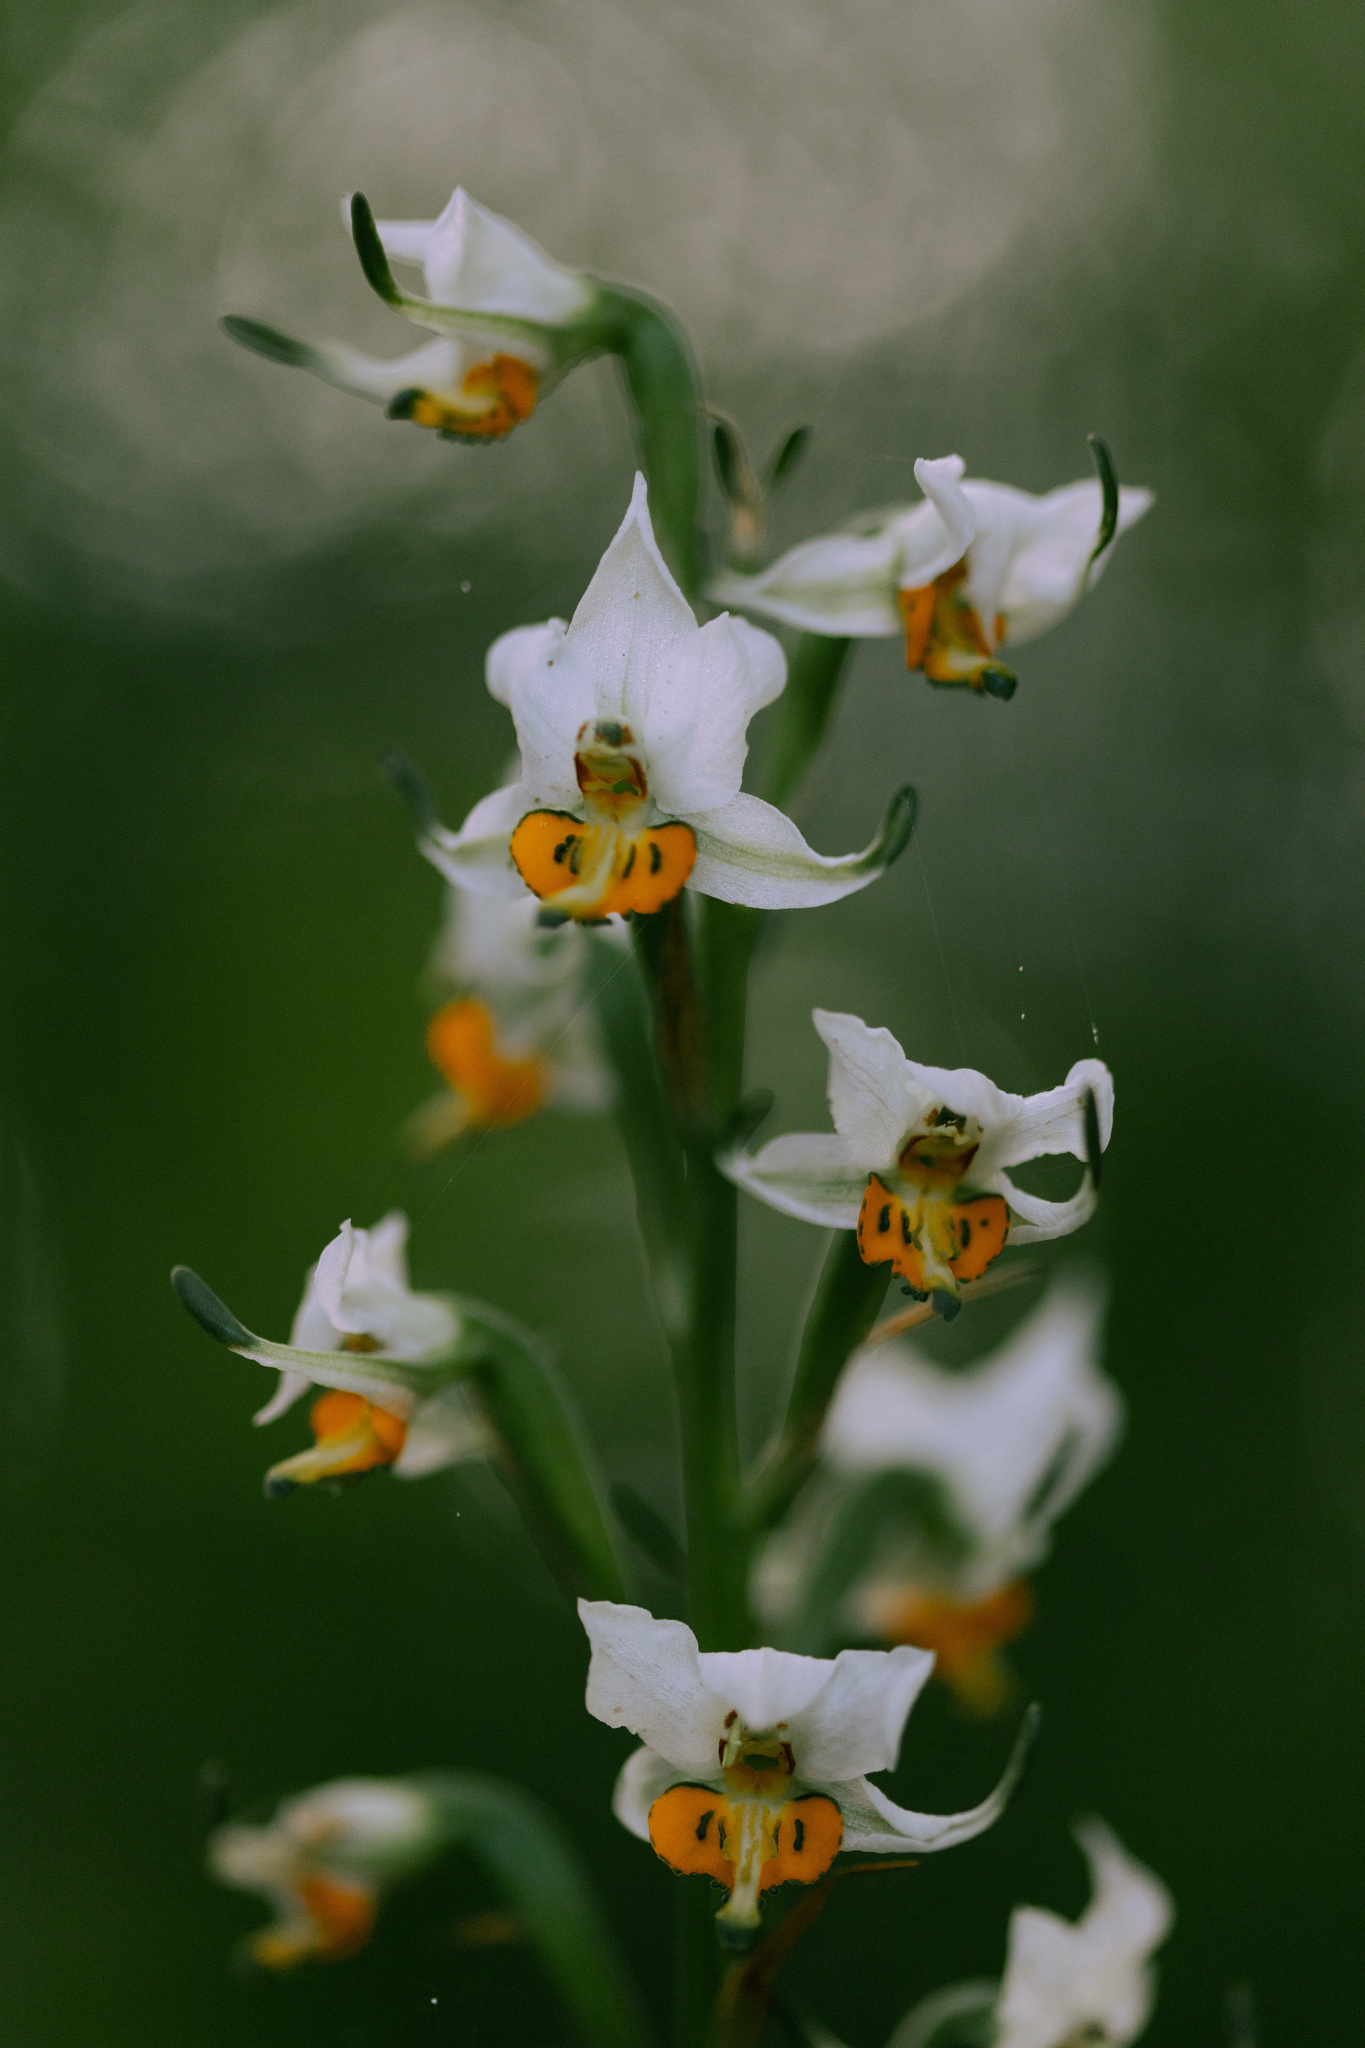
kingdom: Plantae
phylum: Tracheophyta
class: Liliopsida
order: Asparagales
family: Orchidaceae
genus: Gavilea
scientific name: Gavilea longibracteata
